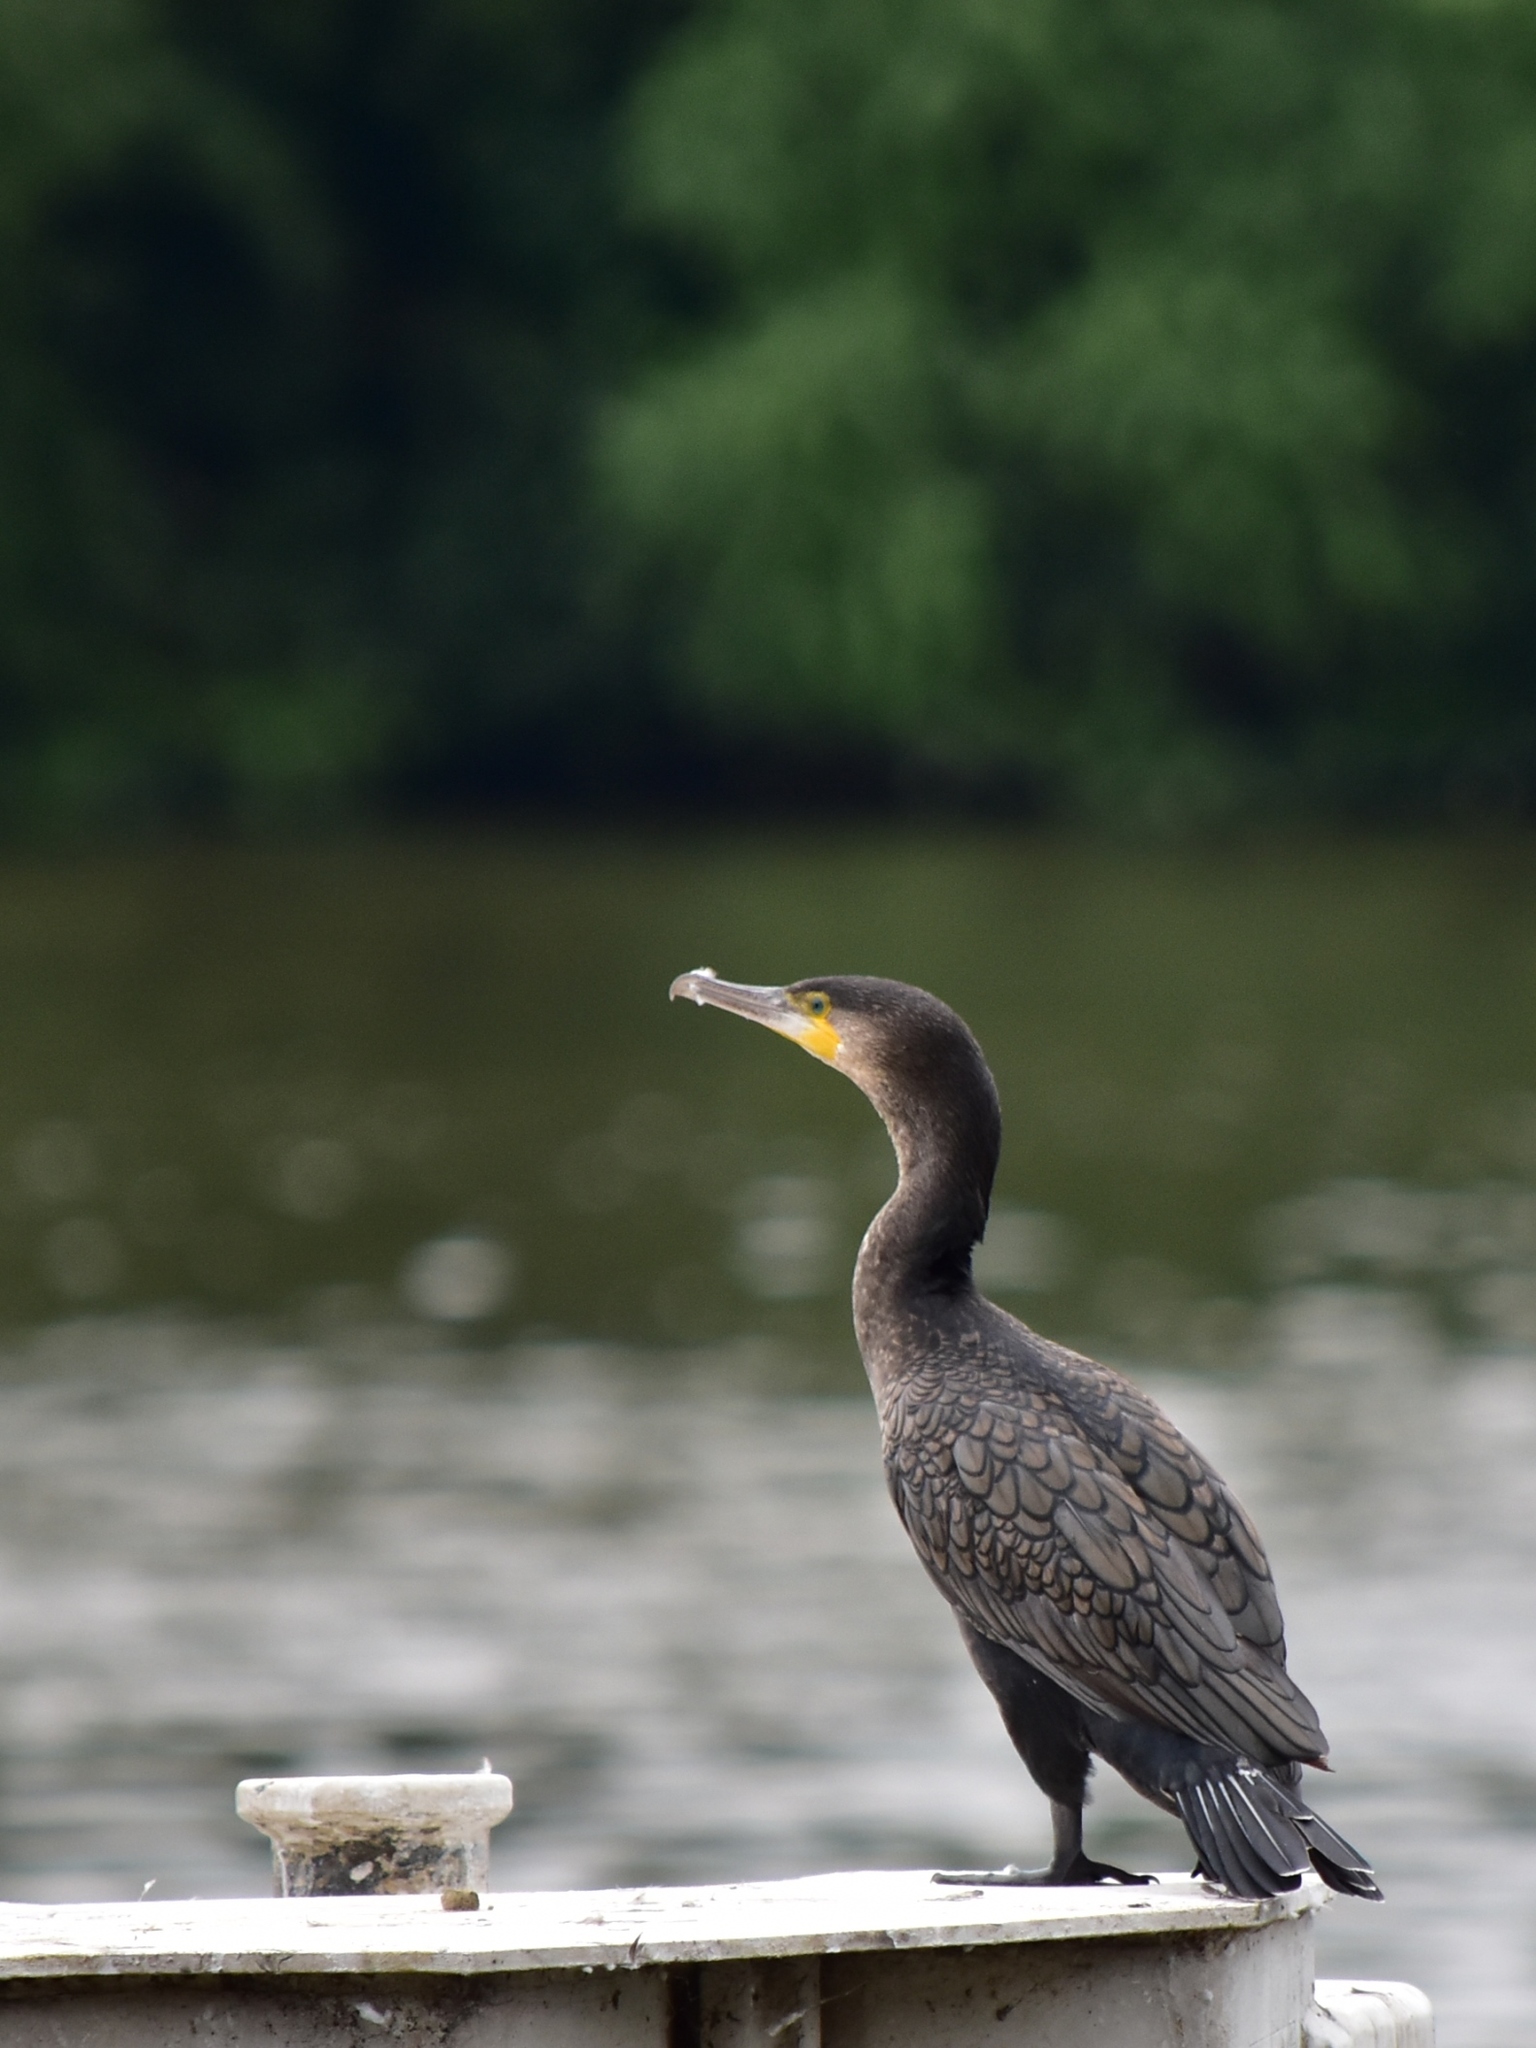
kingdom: Animalia
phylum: Chordata
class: Aves
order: Suliformes
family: Phalacrocoracidae
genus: Phalacrocorax
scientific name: Phalacrocorax carbo
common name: Great cormorant
